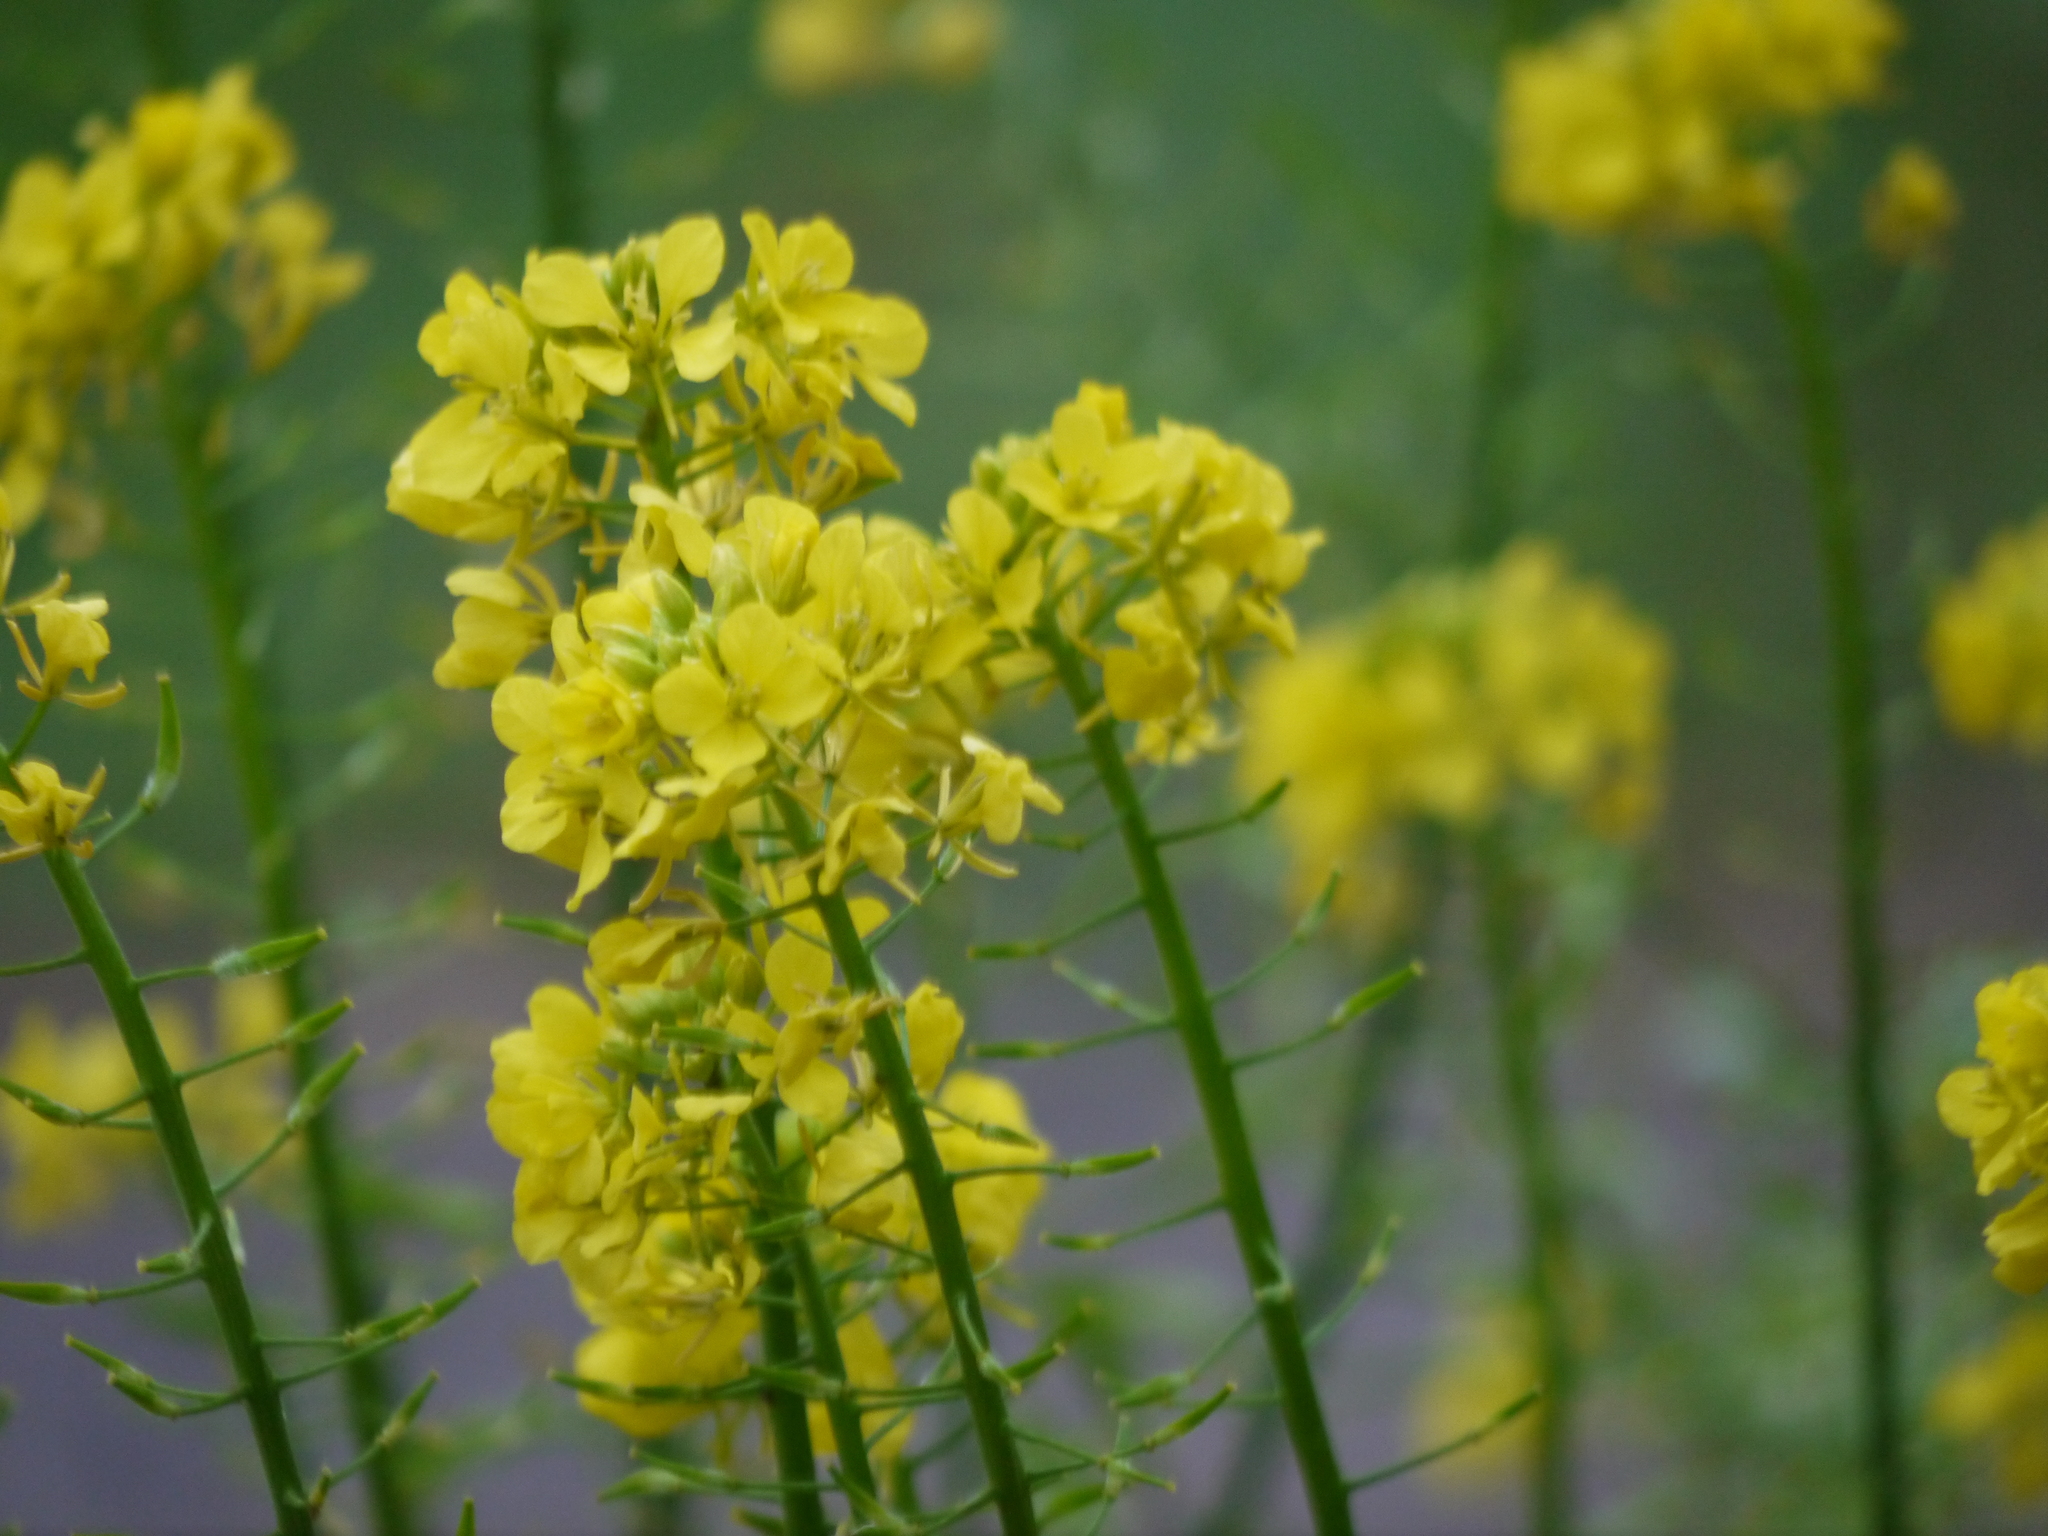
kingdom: Plantae
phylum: Tracheophyta
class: Magnoliopsida
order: Brassicales
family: Brassicaceae
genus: Sinapis
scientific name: Sinapis alba
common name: White mustard
